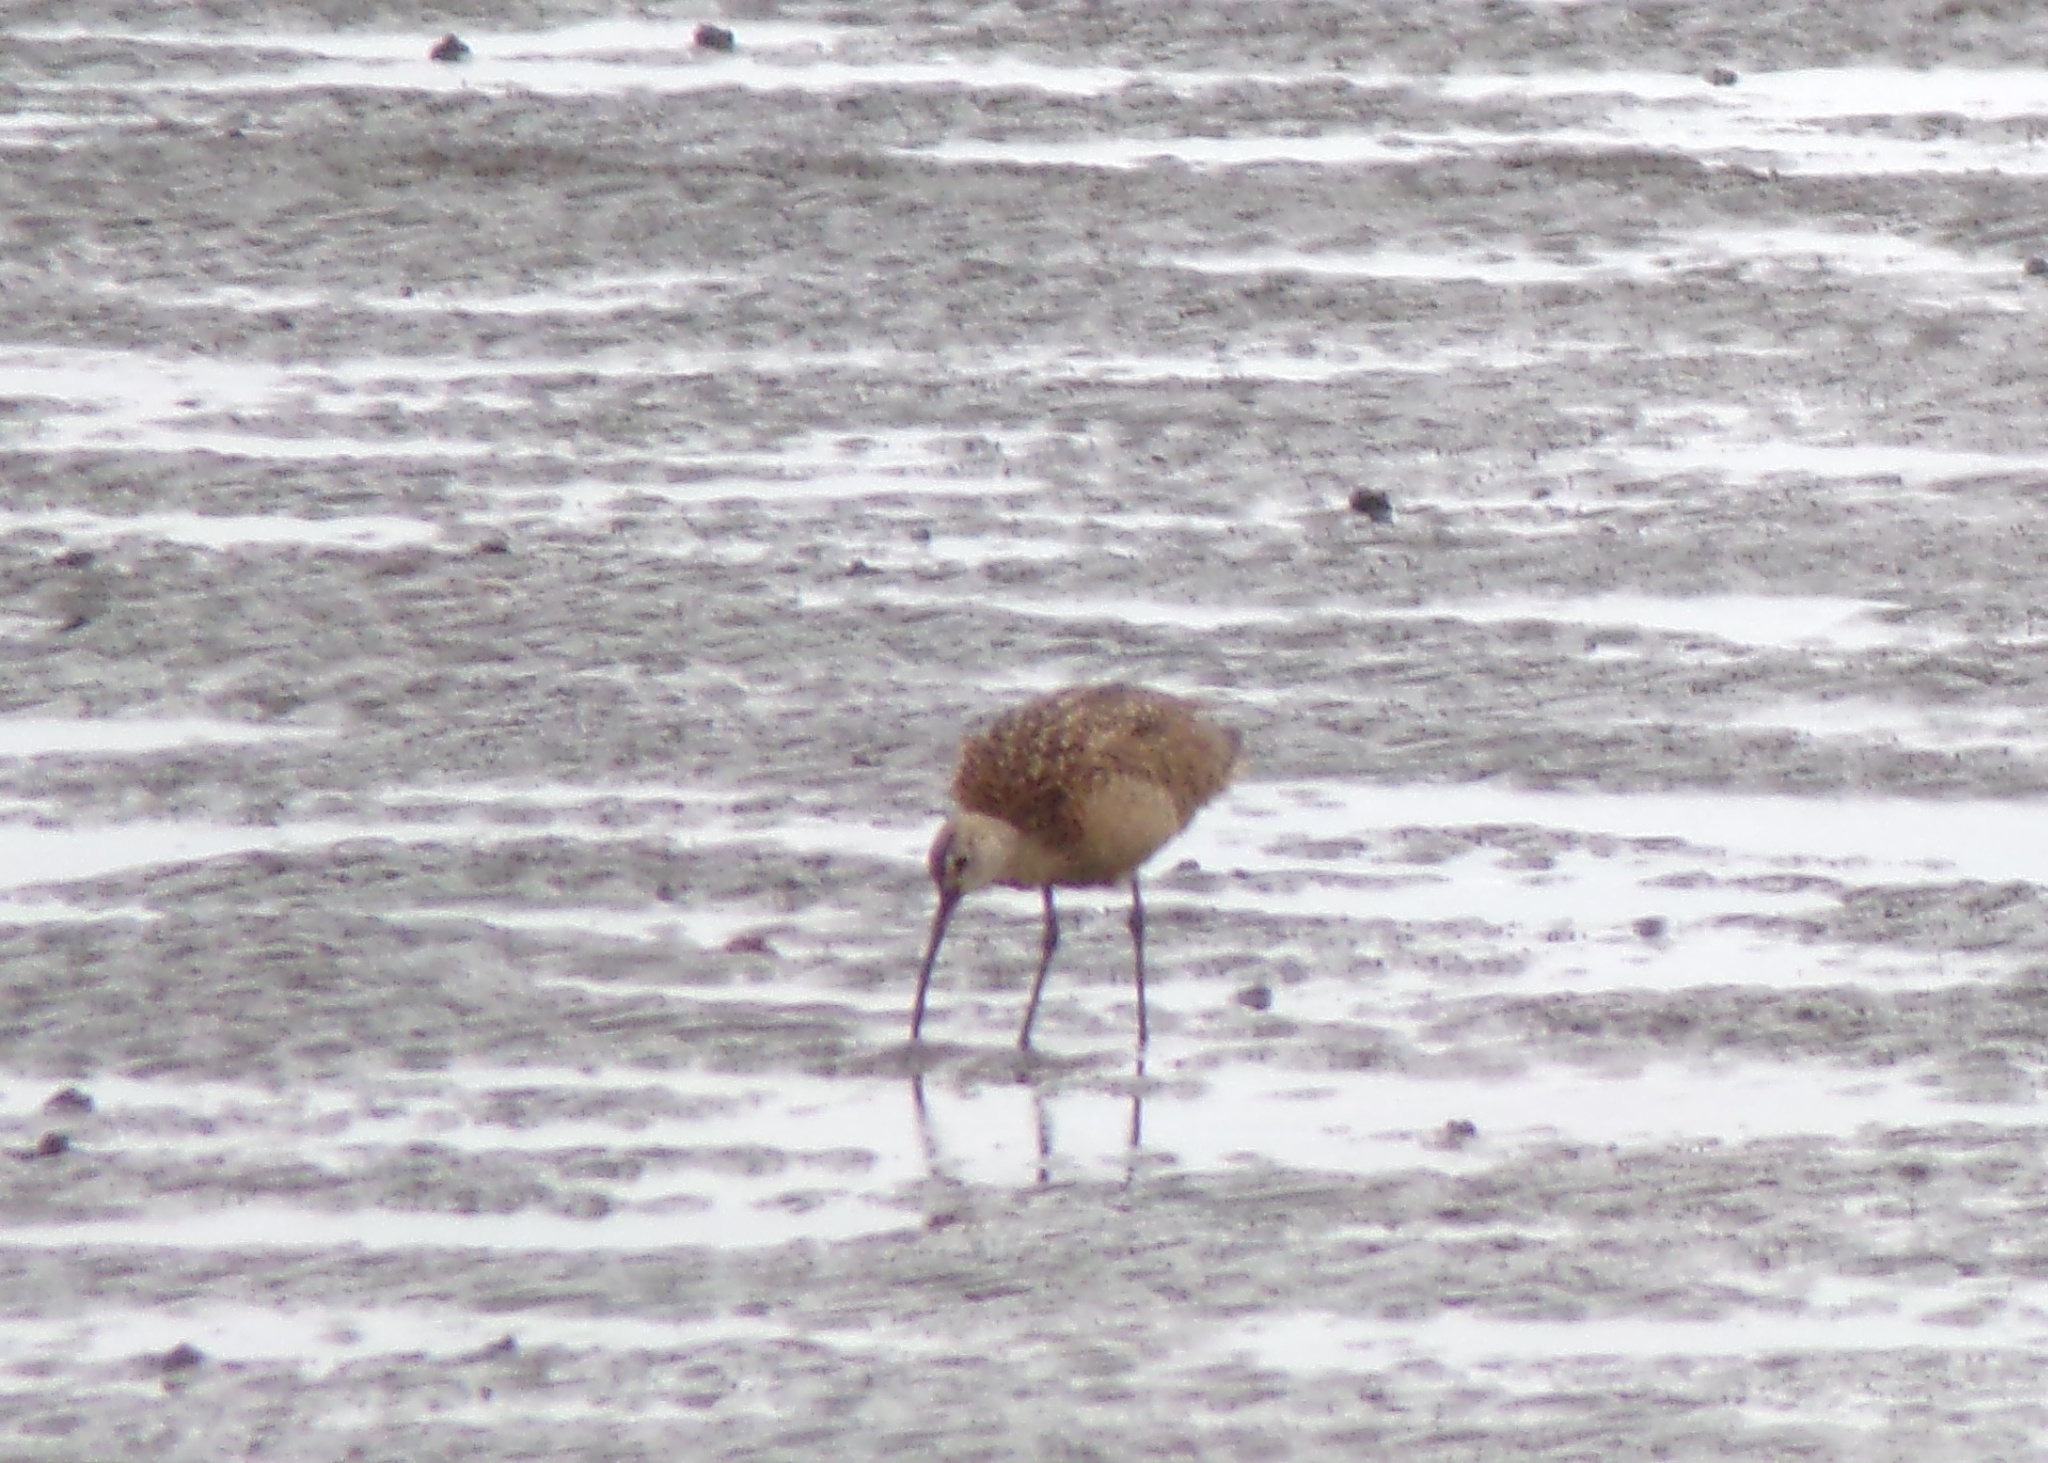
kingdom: Animalia
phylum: Chordata
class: Aves
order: Charadriiformes
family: Scolopacidae
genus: Numenius
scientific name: Numenius americanus
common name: Long-billed curlew
